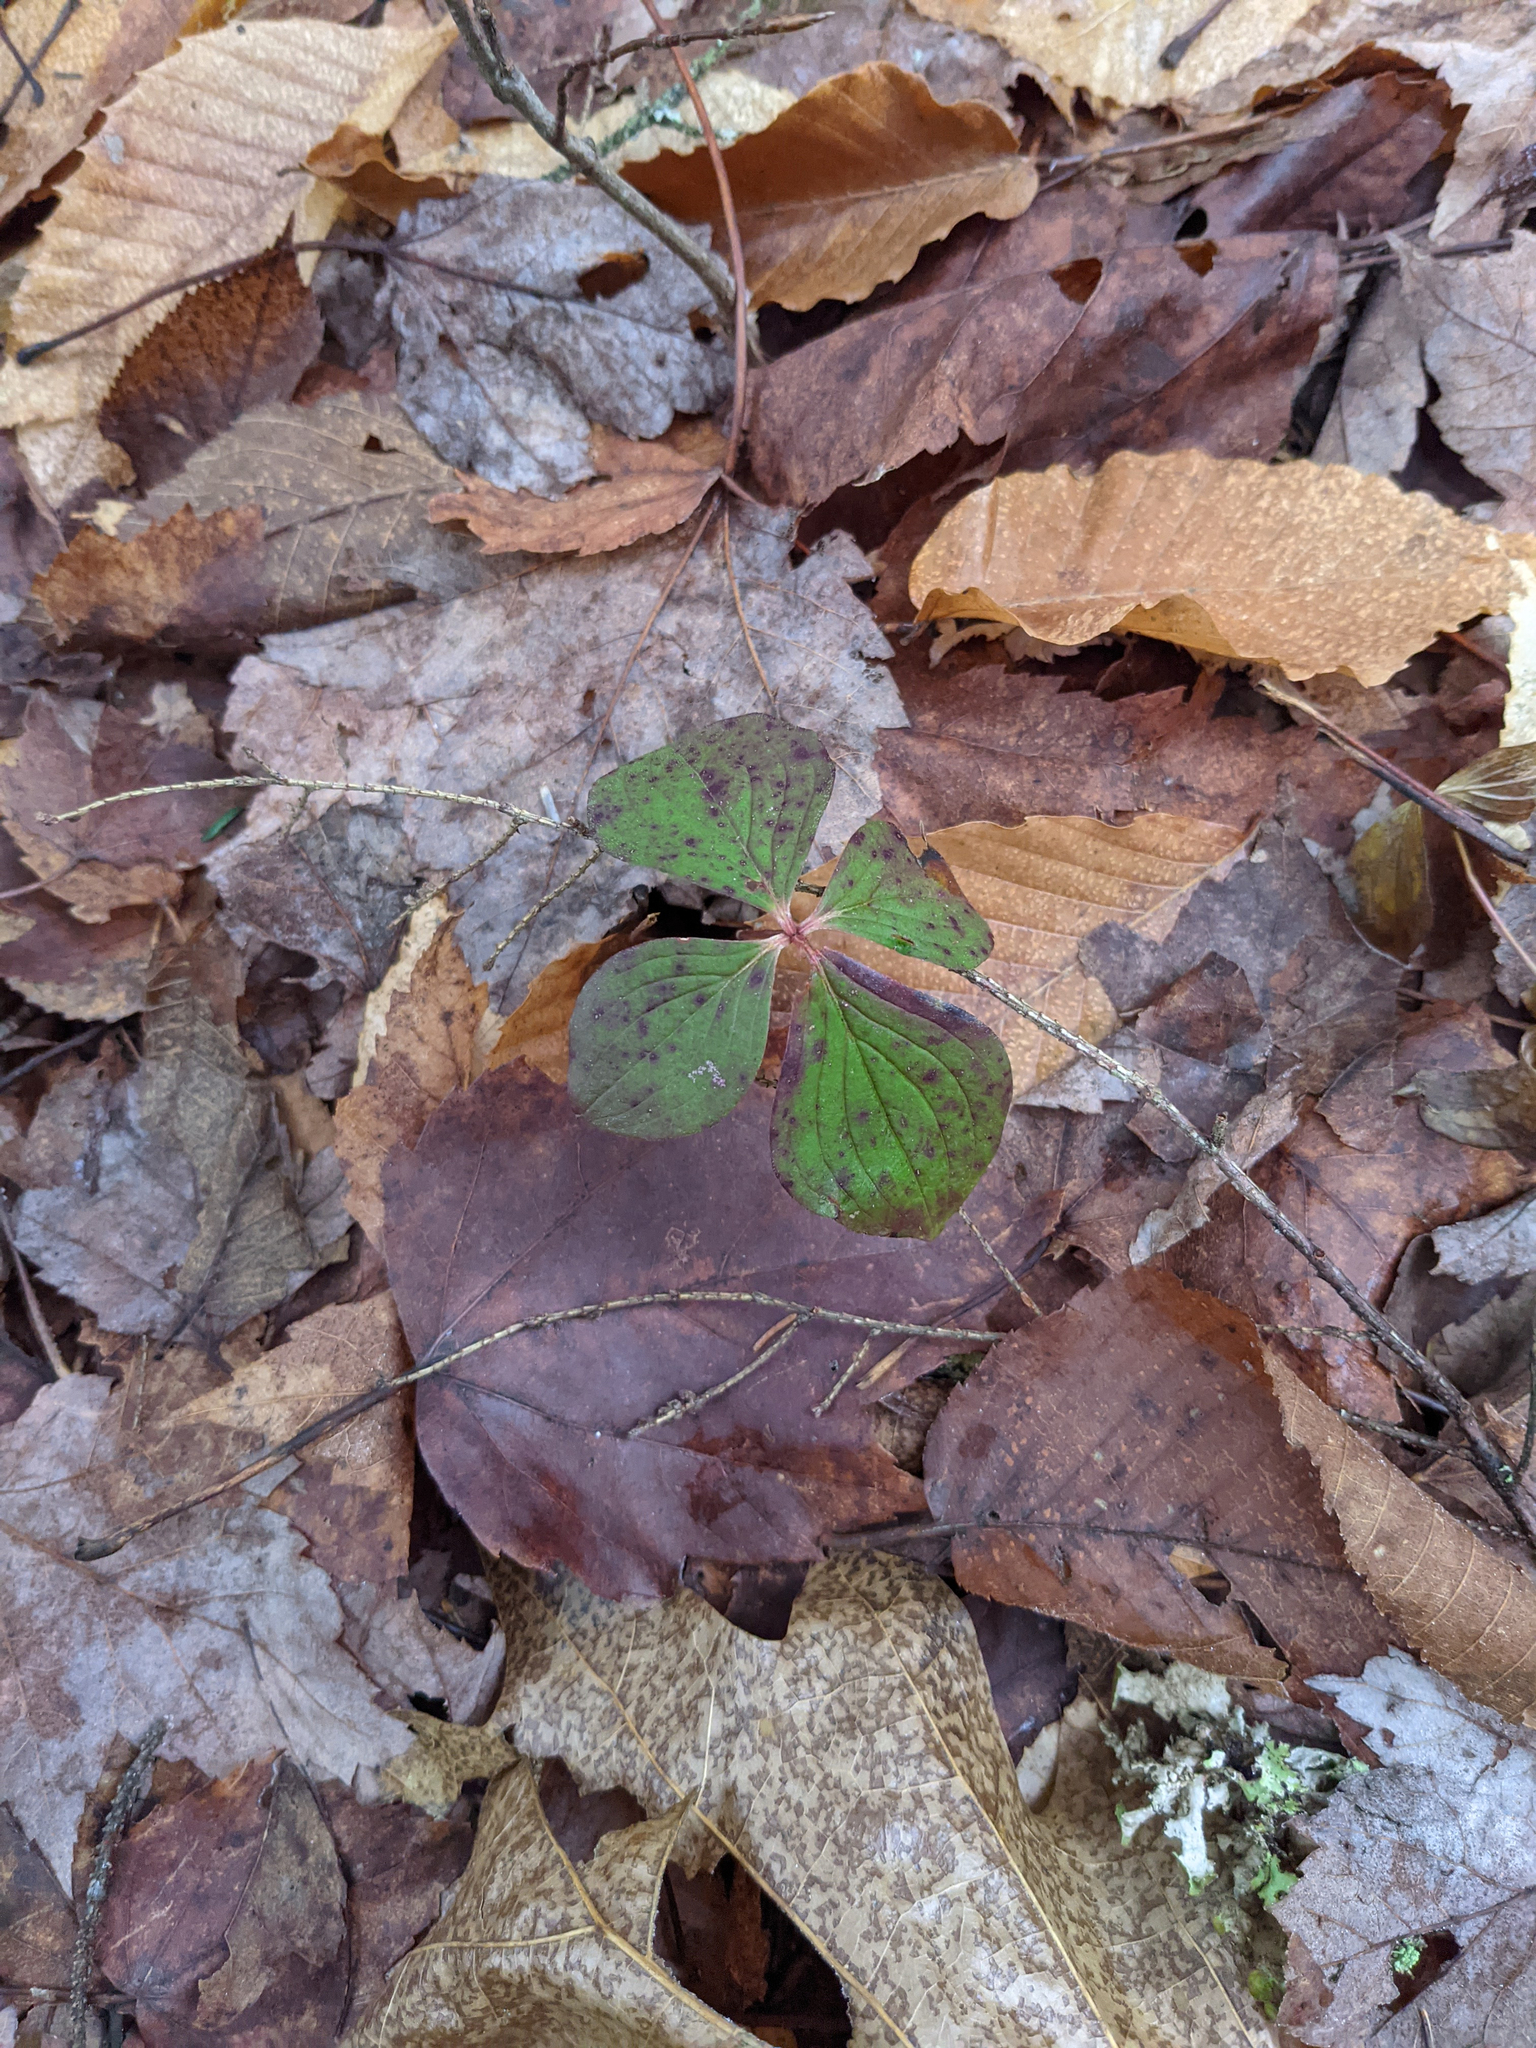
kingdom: Plantae
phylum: Tracheophyta
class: Magnoliopsida
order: Cornales
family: Cornaceae
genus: Cornus
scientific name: Cornus canadensis
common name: Creeping dogwood
